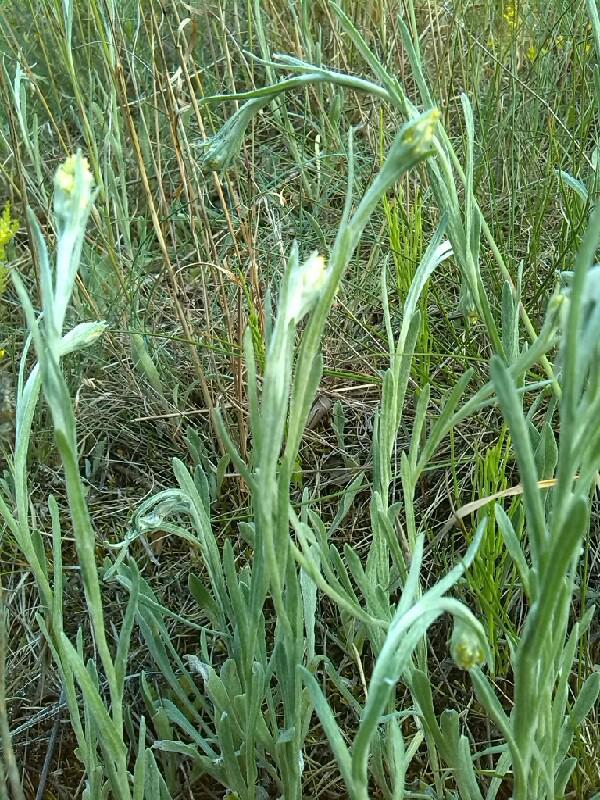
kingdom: Plantae
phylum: Tracheophyta
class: Magnoliopsida
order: Asterales
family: Asteraceae
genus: Helichrysum
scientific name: Helichrysum arenarium
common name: Strawflower
